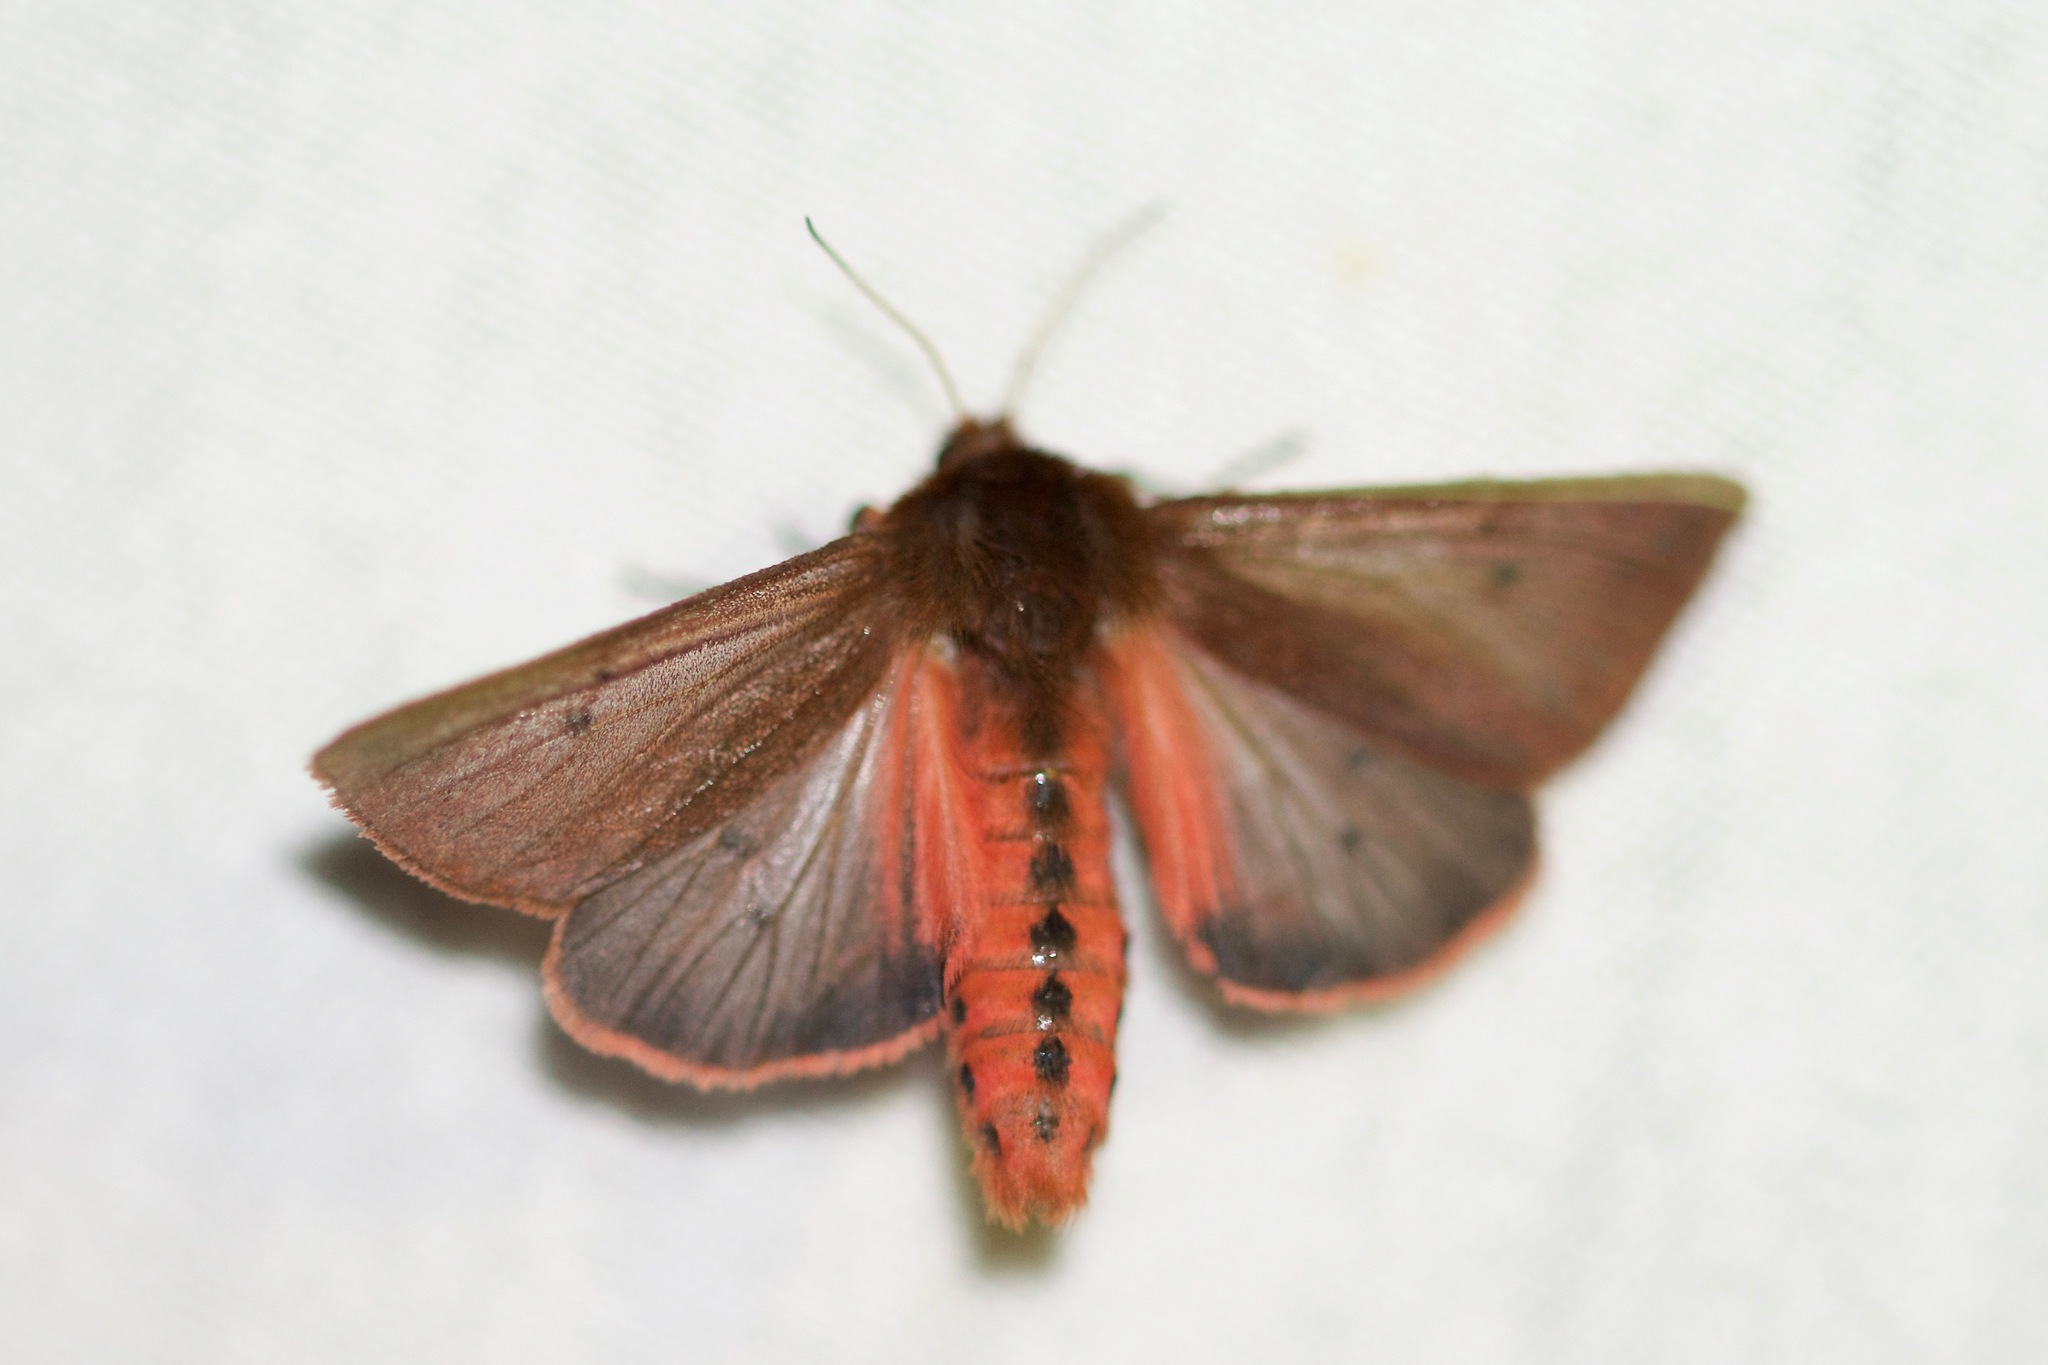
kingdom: Animalia
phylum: Arthropoda
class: Insecta
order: Lepidoptera
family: Erebidae
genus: Phragmatobia
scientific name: Phragmatobia fuliginosa
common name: Ruby tiger
